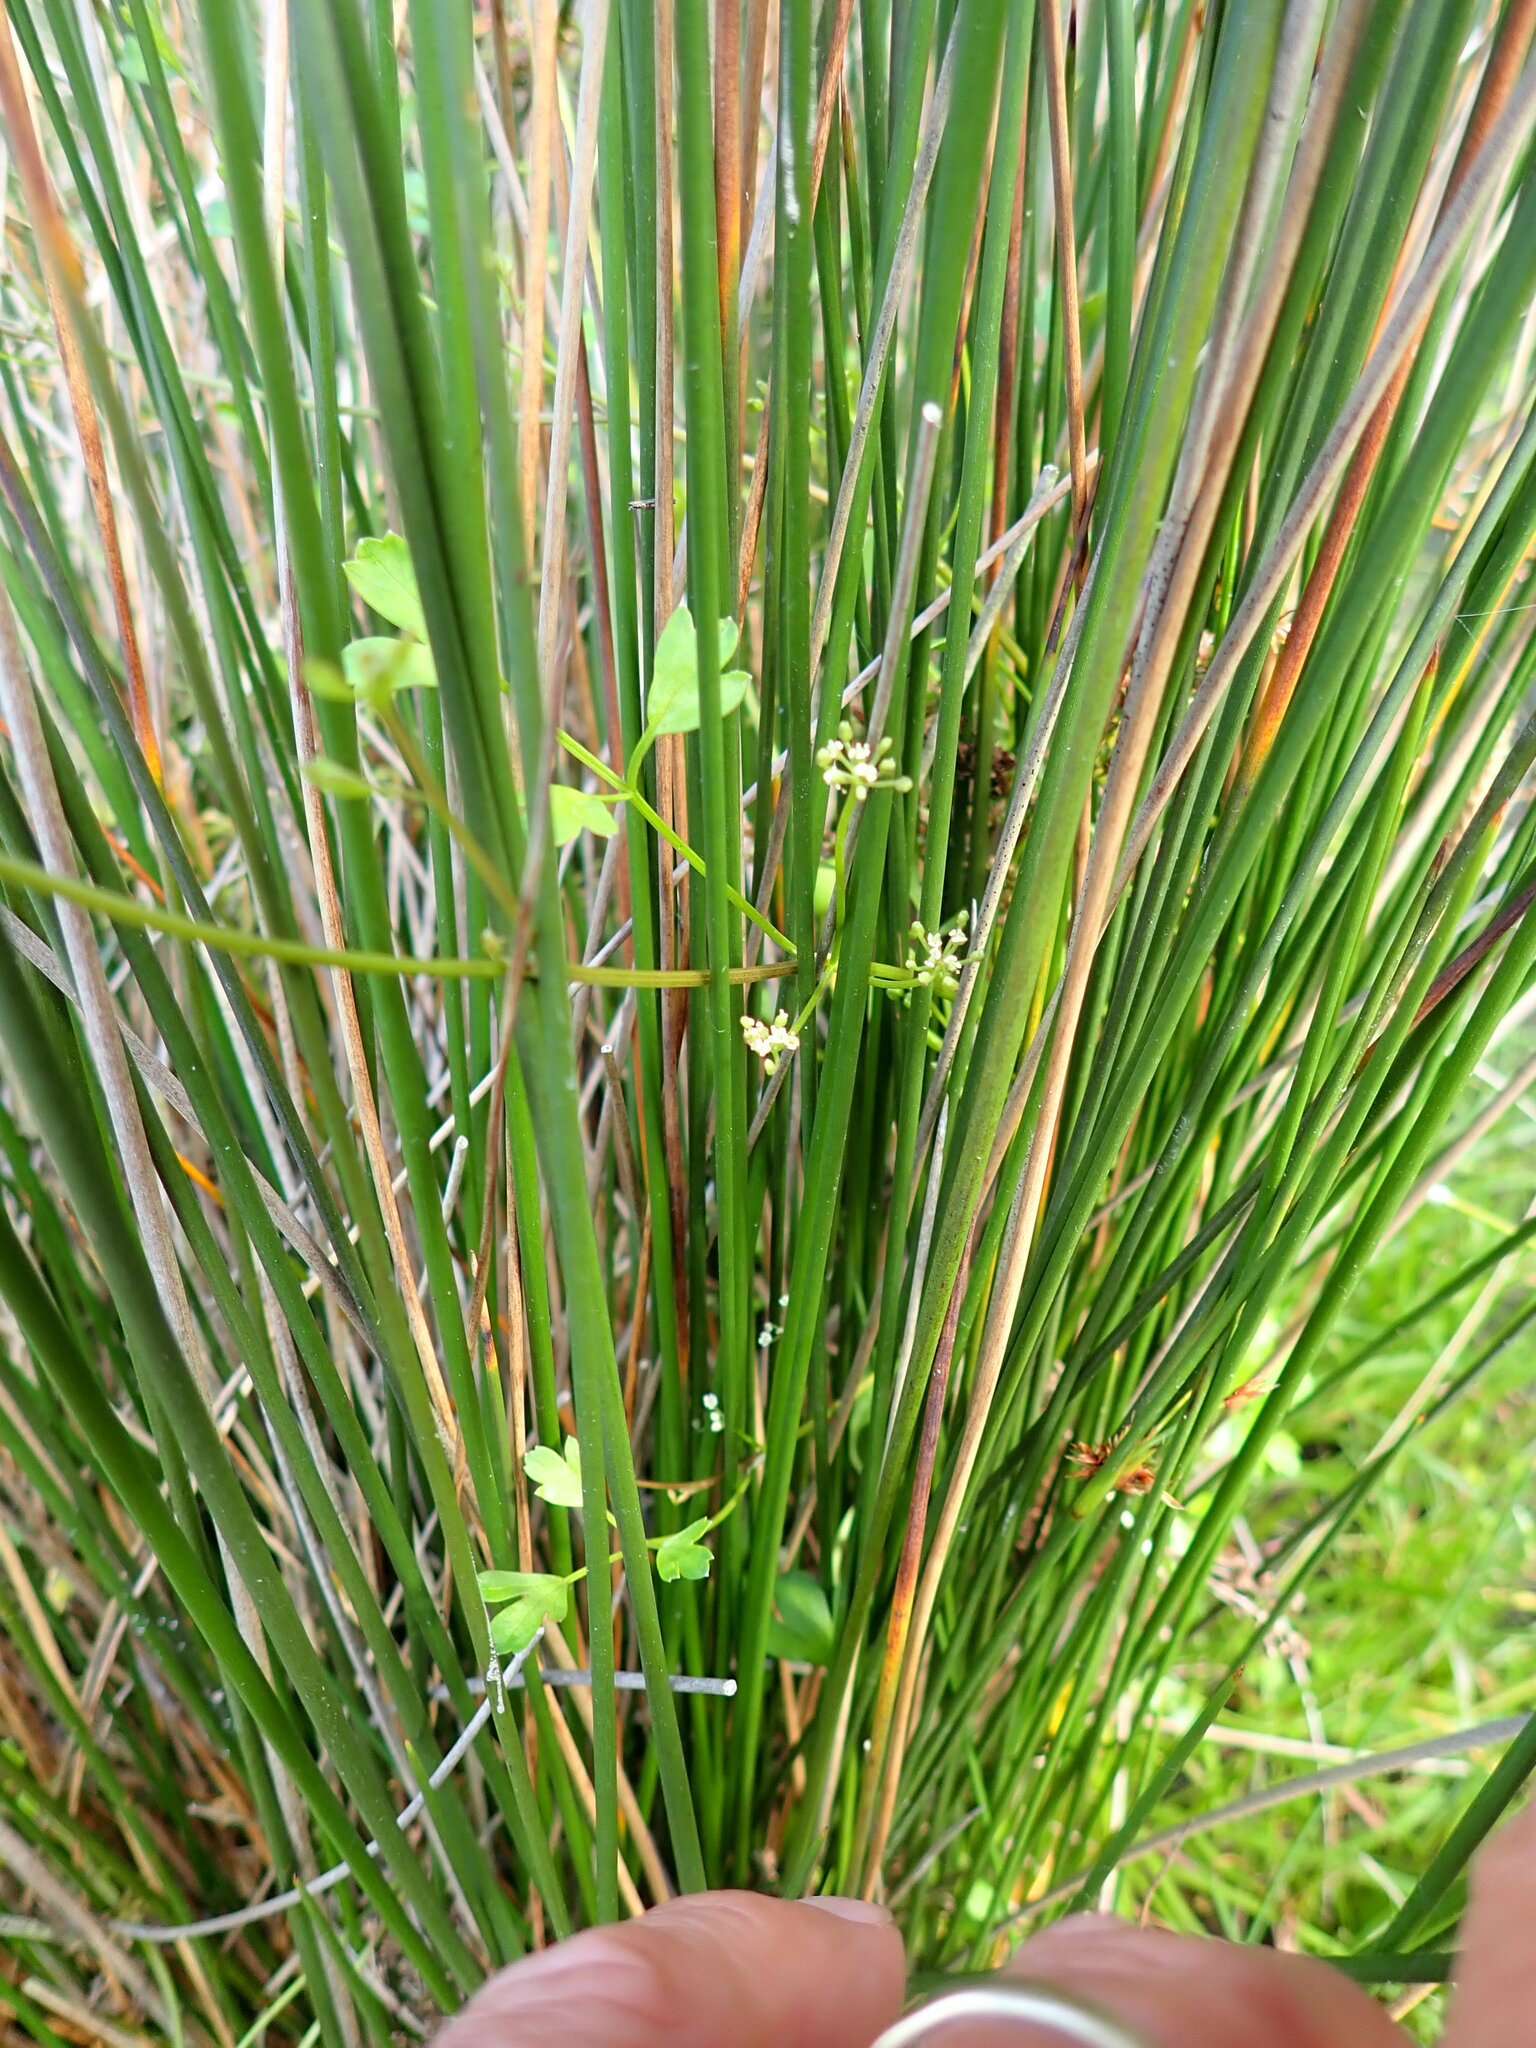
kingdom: Plantae
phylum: Tracheophyta
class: Magnoliopsida
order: Apiales
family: Apiaceae
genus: Apium
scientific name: Apium prostratum
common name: Prostrate marshwort
